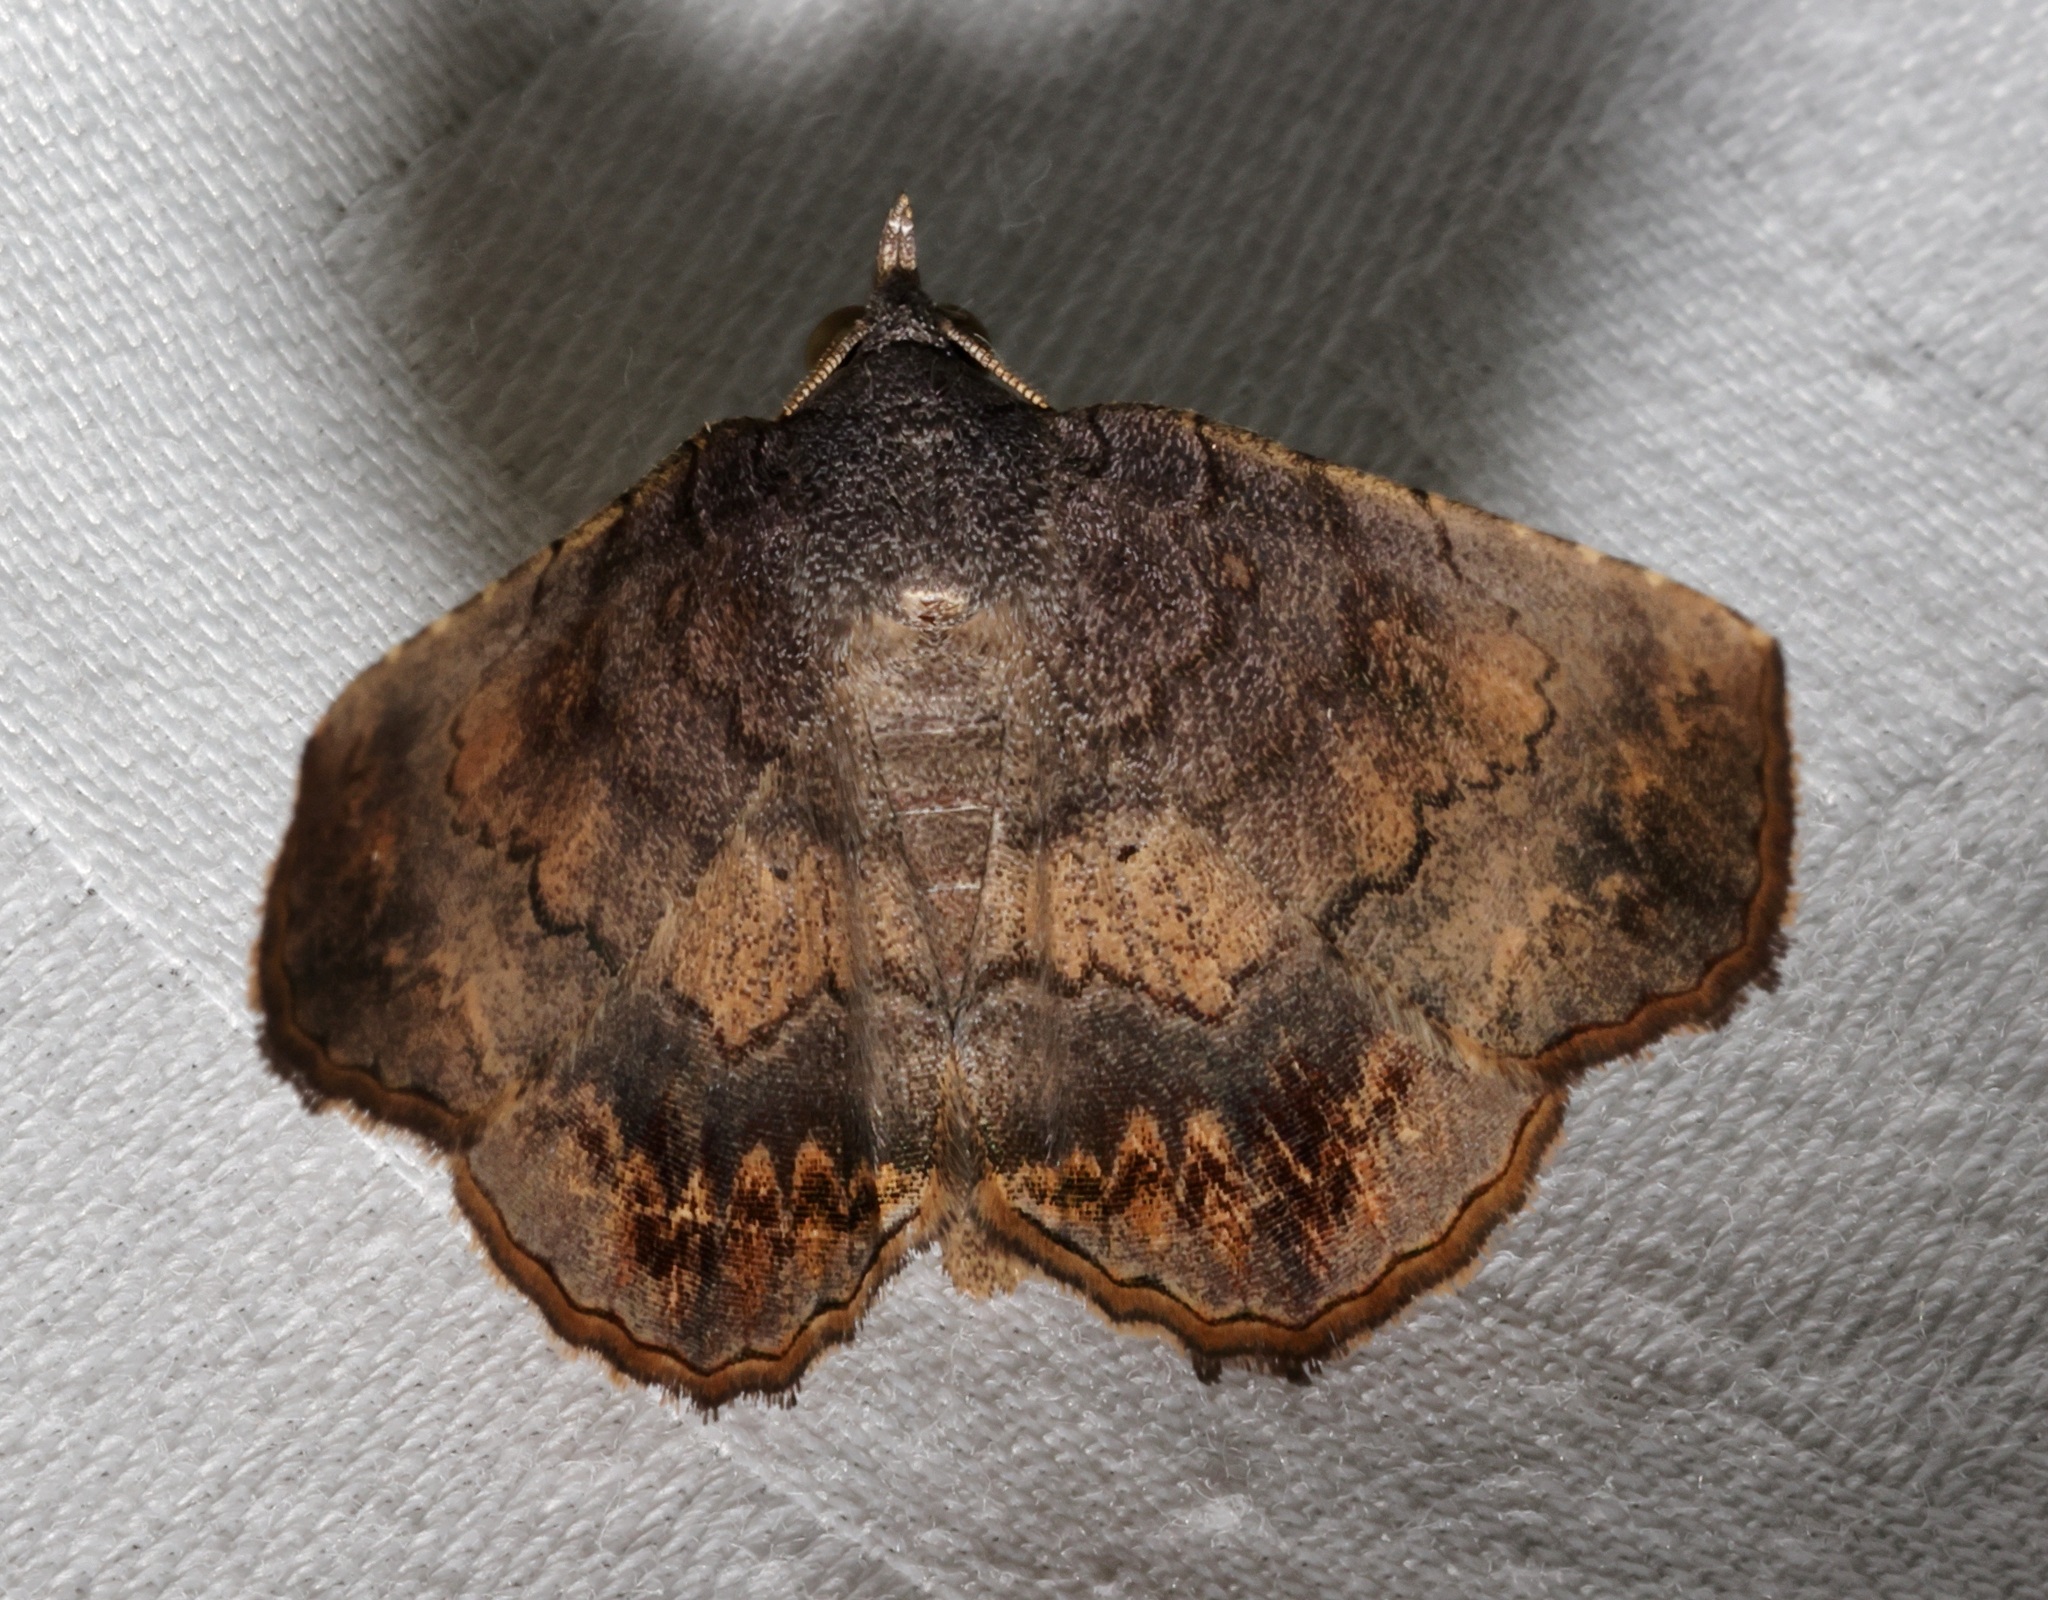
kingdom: Animalia
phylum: Arthropoda
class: Insecta
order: Lepidoptera
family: Erebidae
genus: Pangrapta
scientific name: Pangrapta bicornuta
